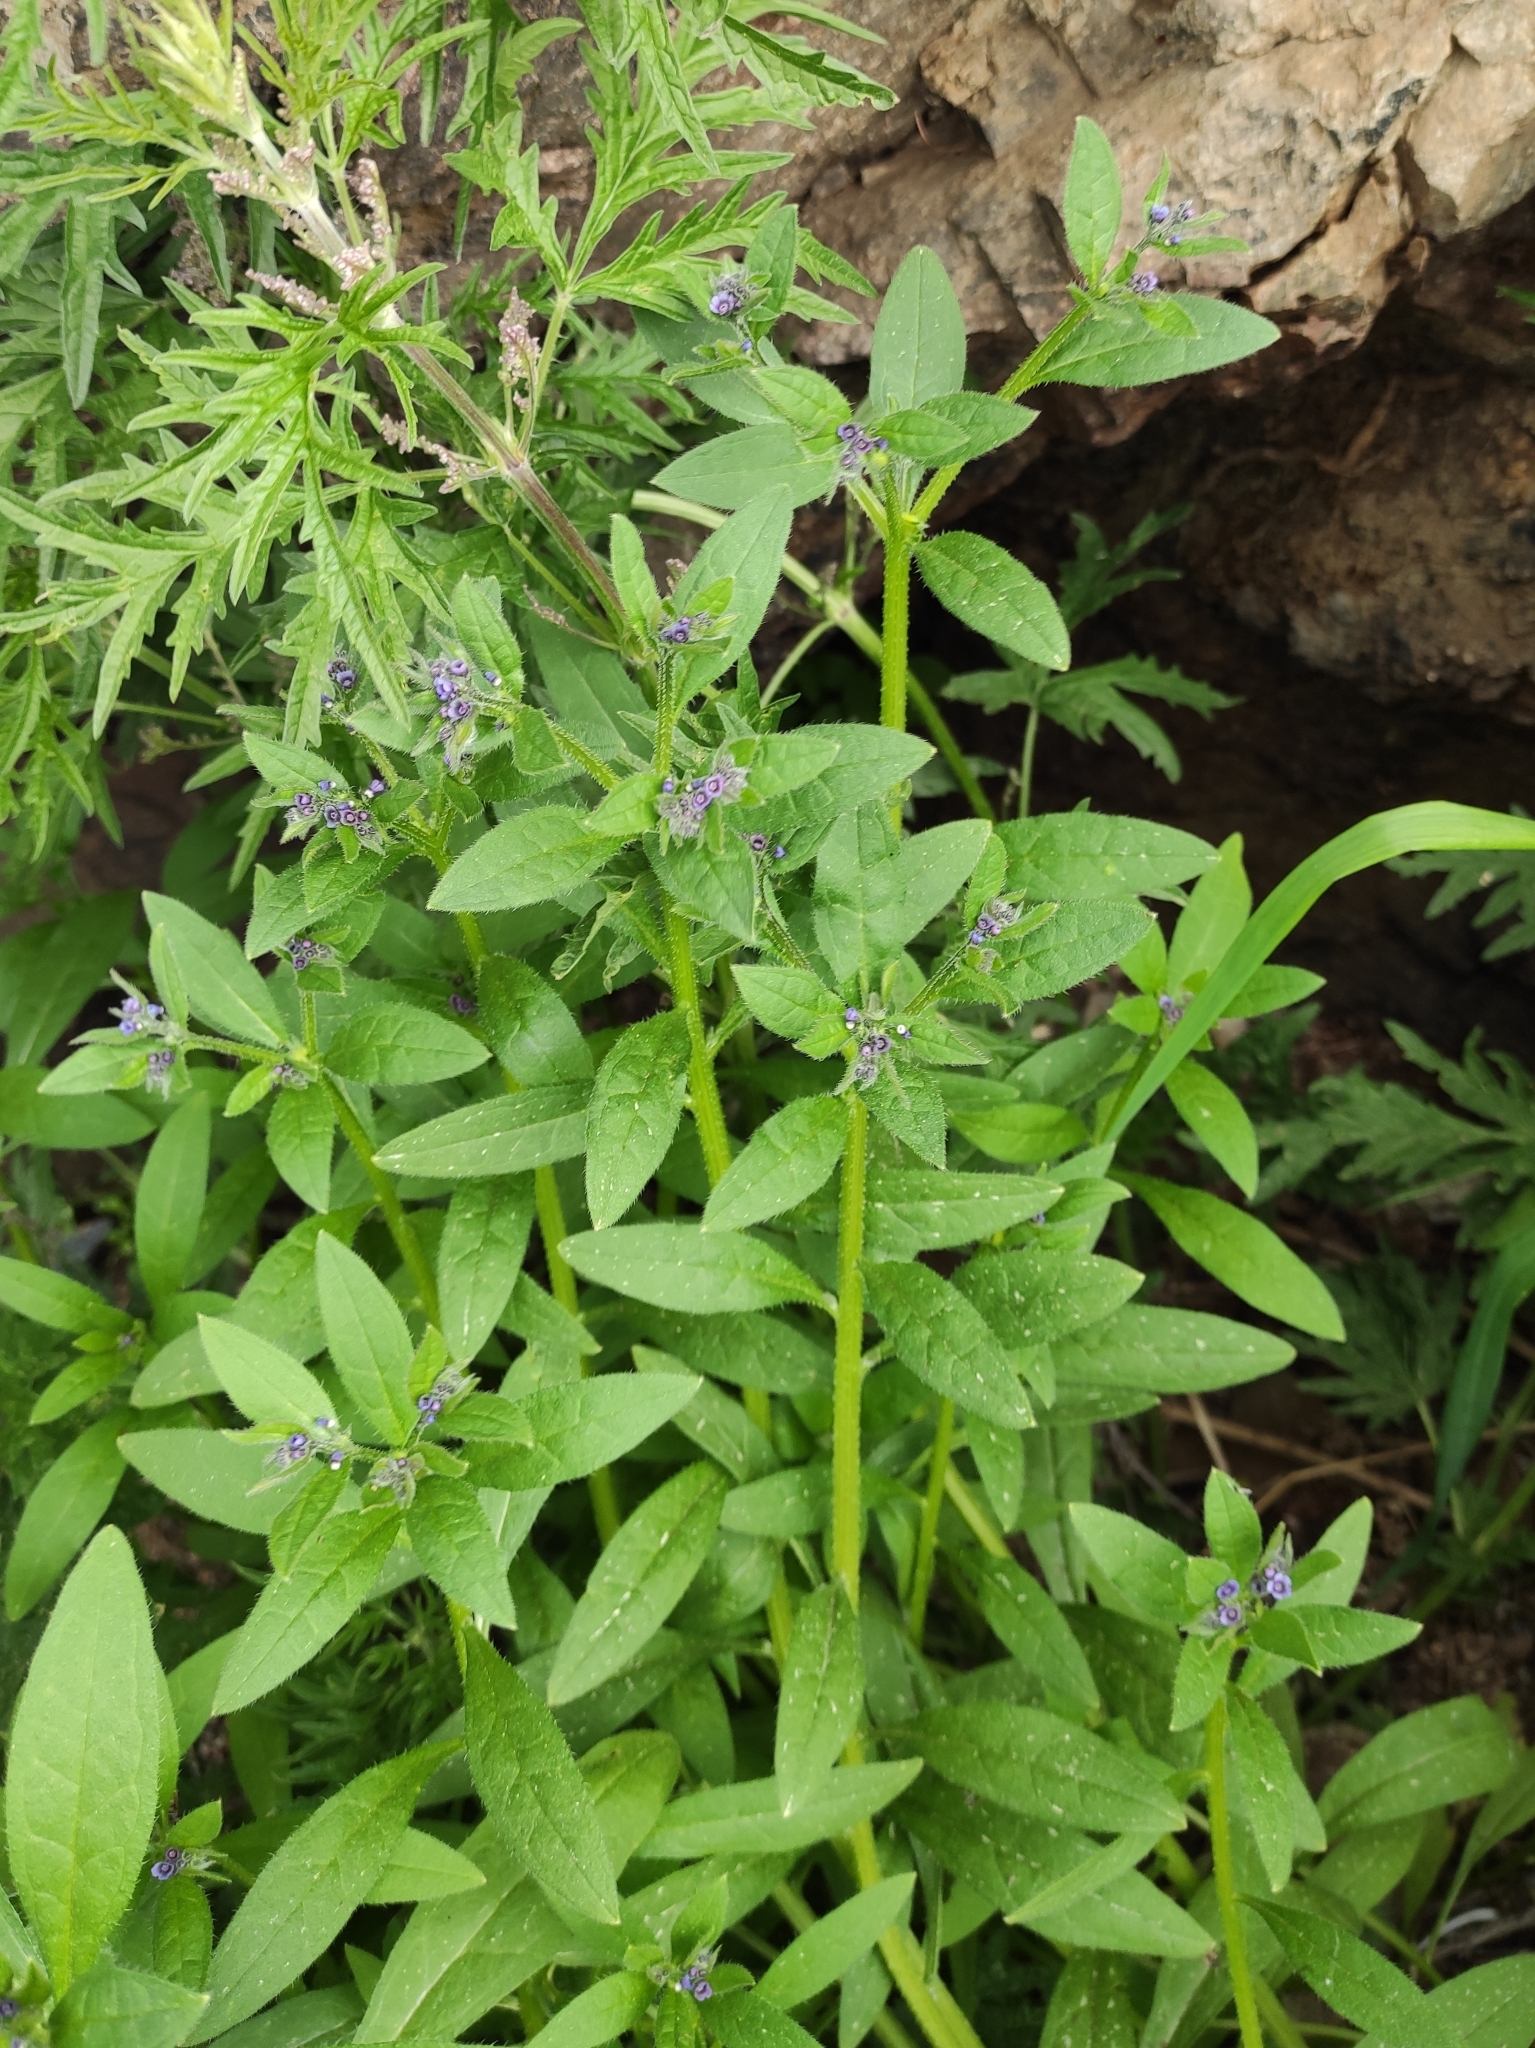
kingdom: Plantae
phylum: Tracheophyta
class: Magnoliopsida
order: Boraginales
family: Boraginaceae
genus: Asperugo
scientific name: Asperugo procumbens
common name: Madwort
